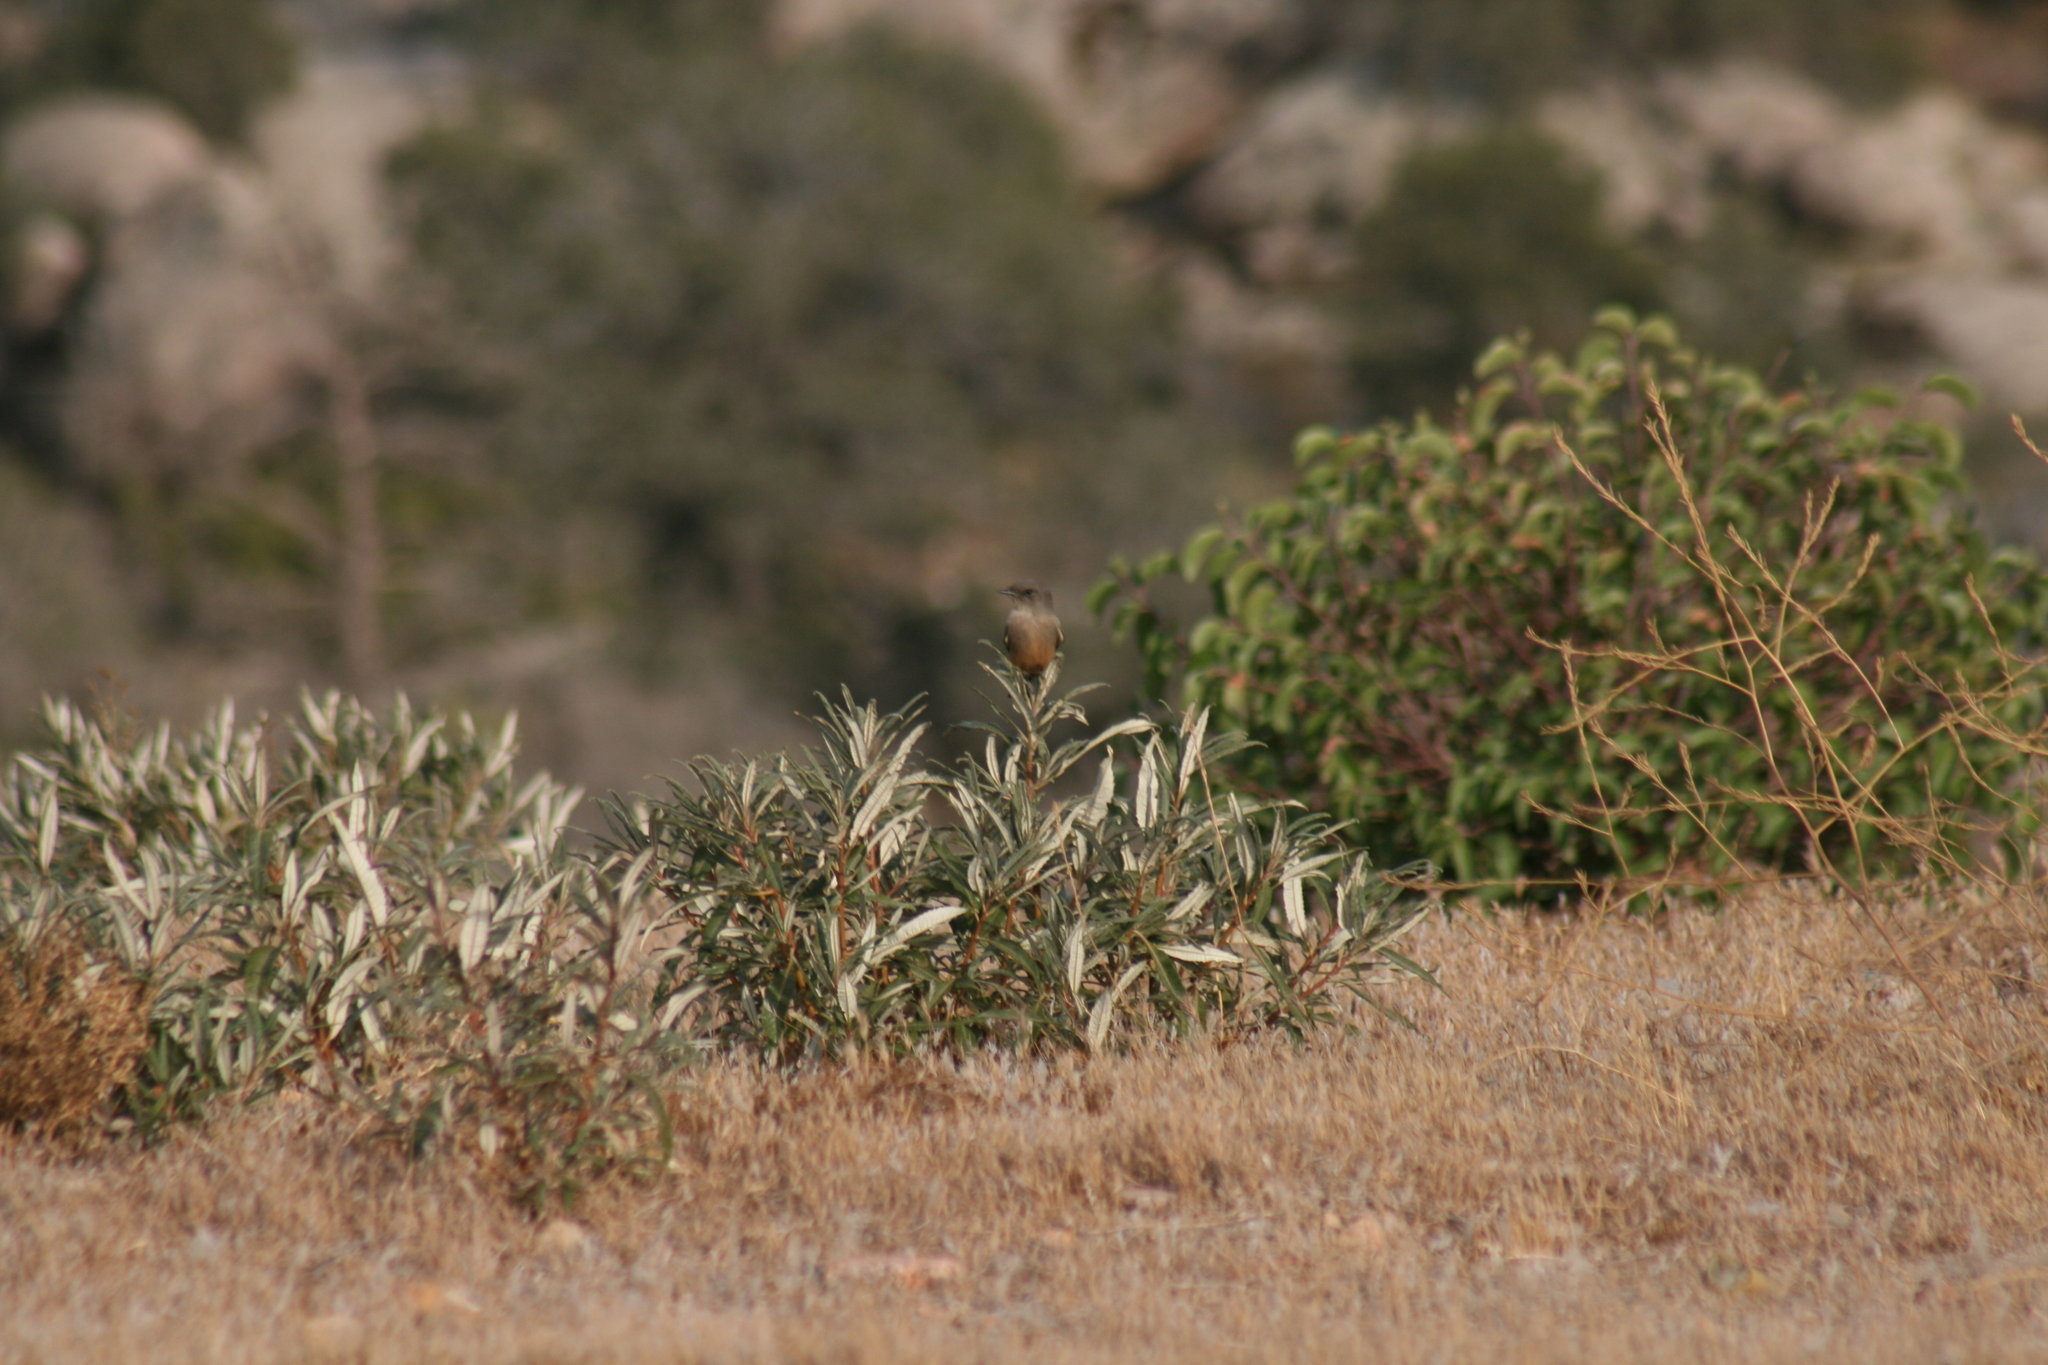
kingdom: Animalia
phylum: Chordata
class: Aves
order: Passeriformes
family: Tyrannidae
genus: Sayornis
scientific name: Sayornis saya
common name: Say's phoebe
